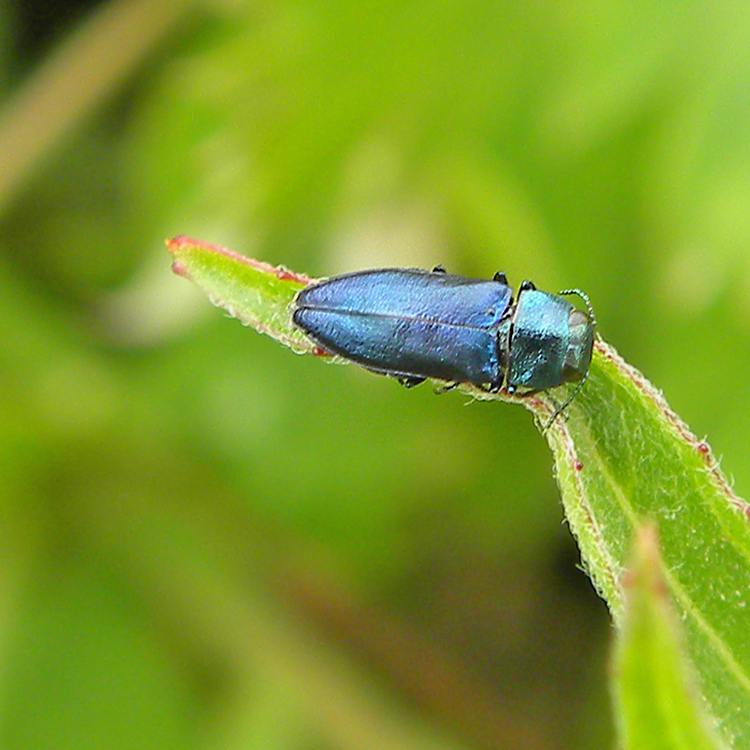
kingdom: Animalia
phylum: Arthropoda
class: Insecta
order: Coleoptera
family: Buprestidae
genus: Anthaxia
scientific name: Anthaxia cyanella
